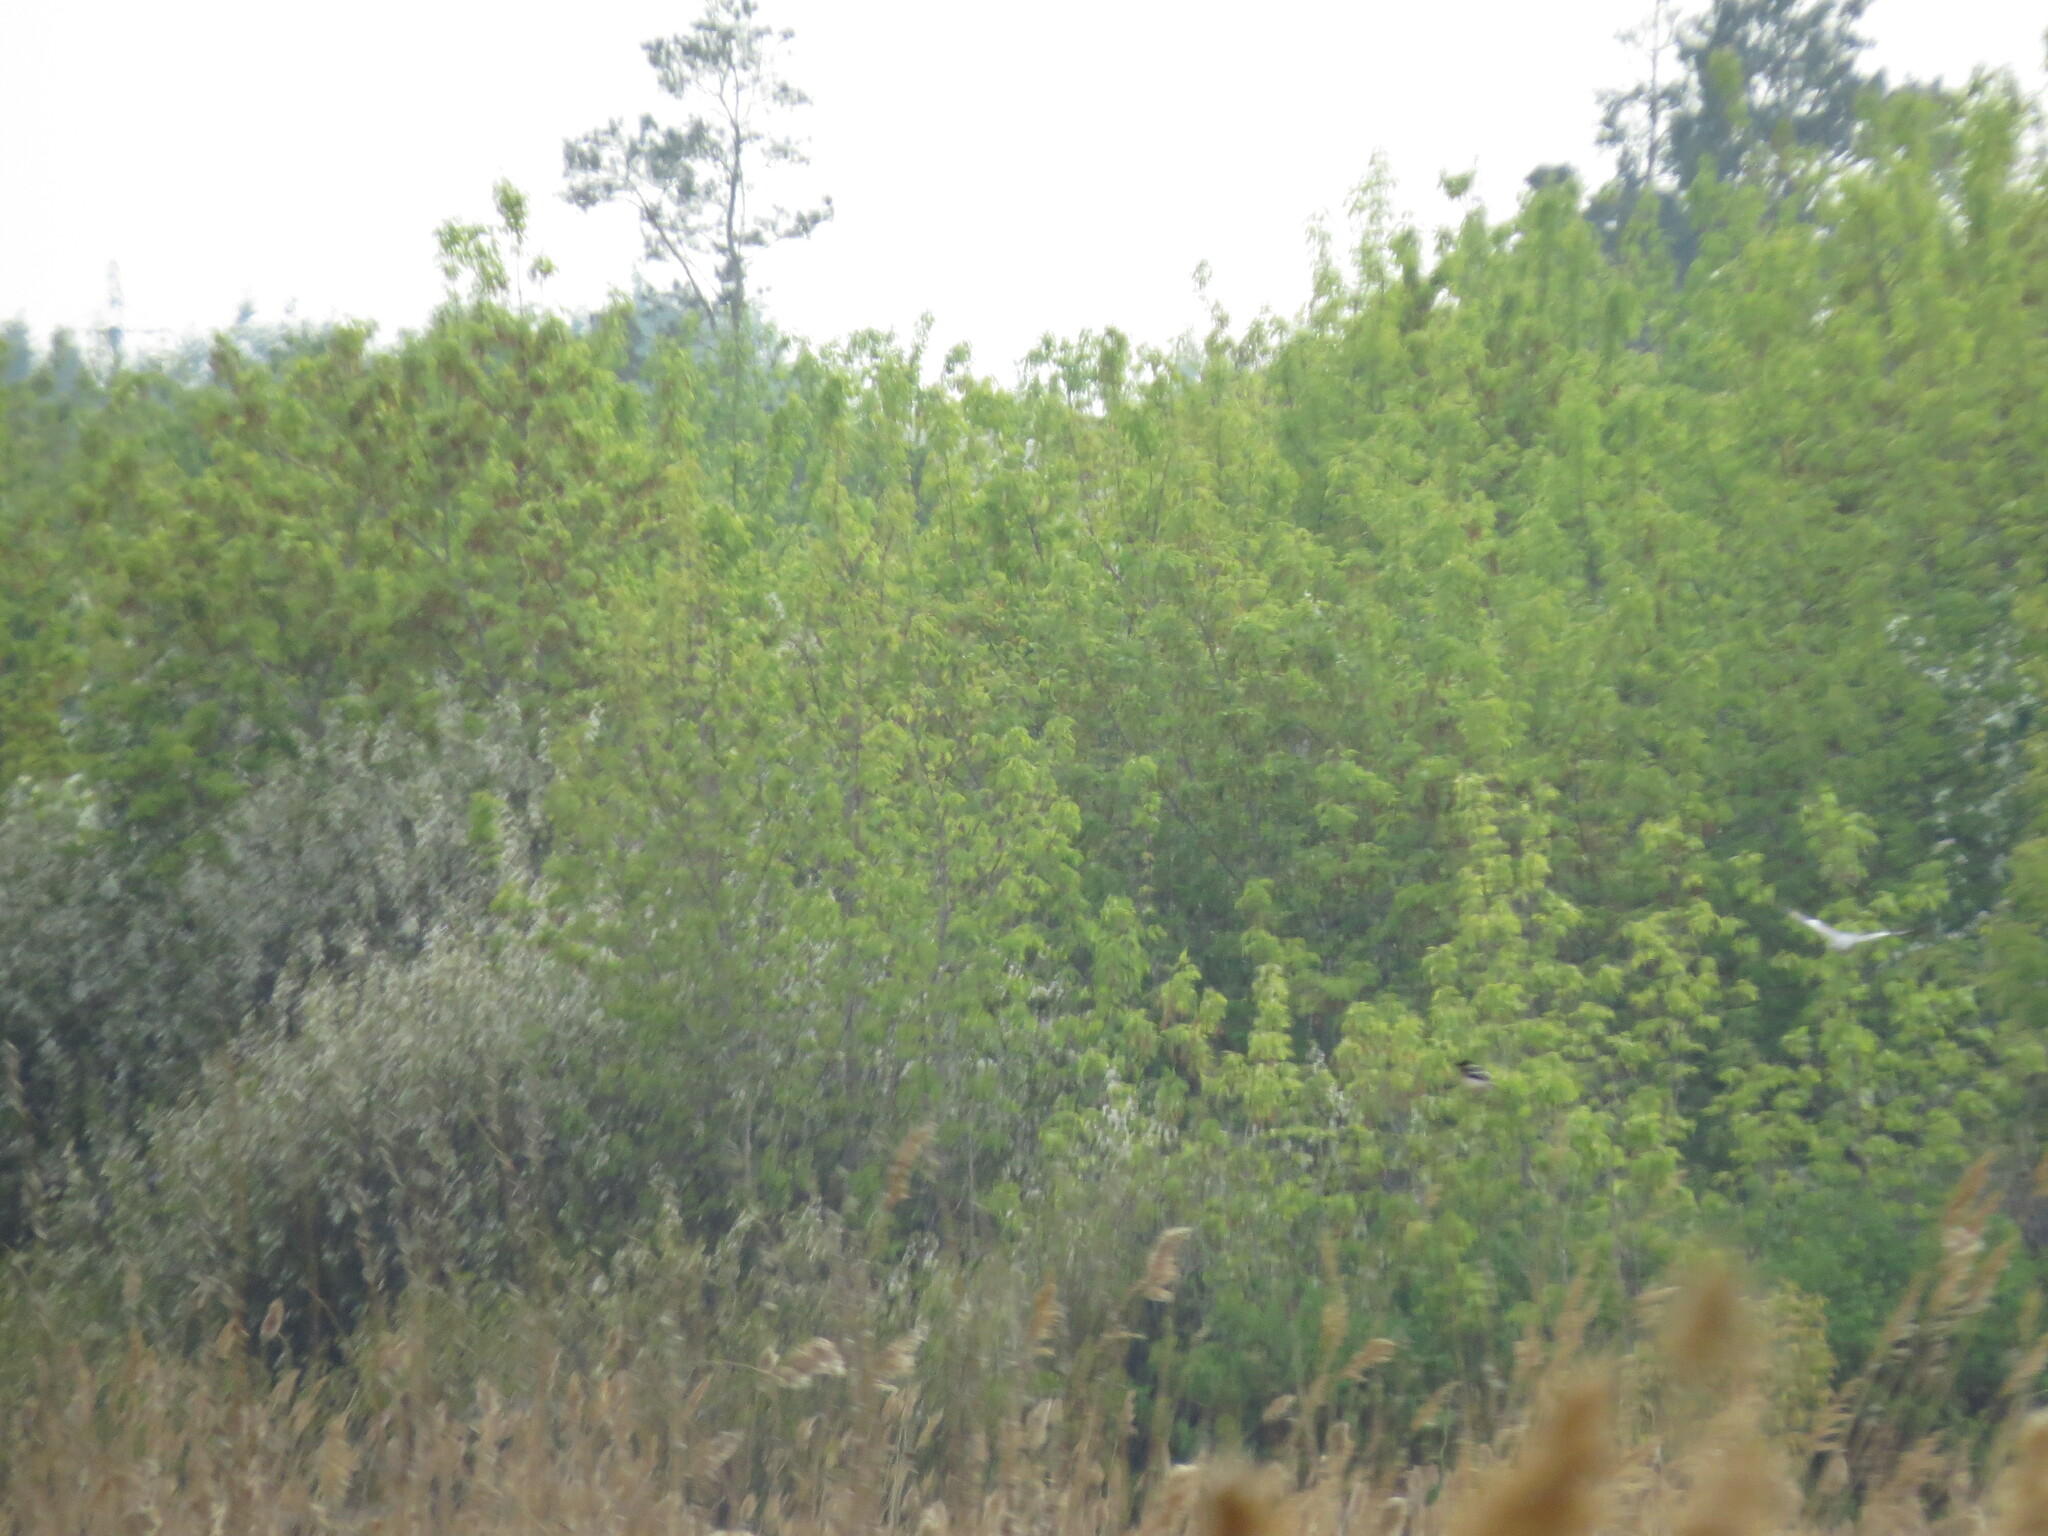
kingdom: Animalia
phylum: Chordata
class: Aves
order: Columbiformes
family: Columbidae
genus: Columba
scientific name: Columba palumbus
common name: Common wood pigeon
